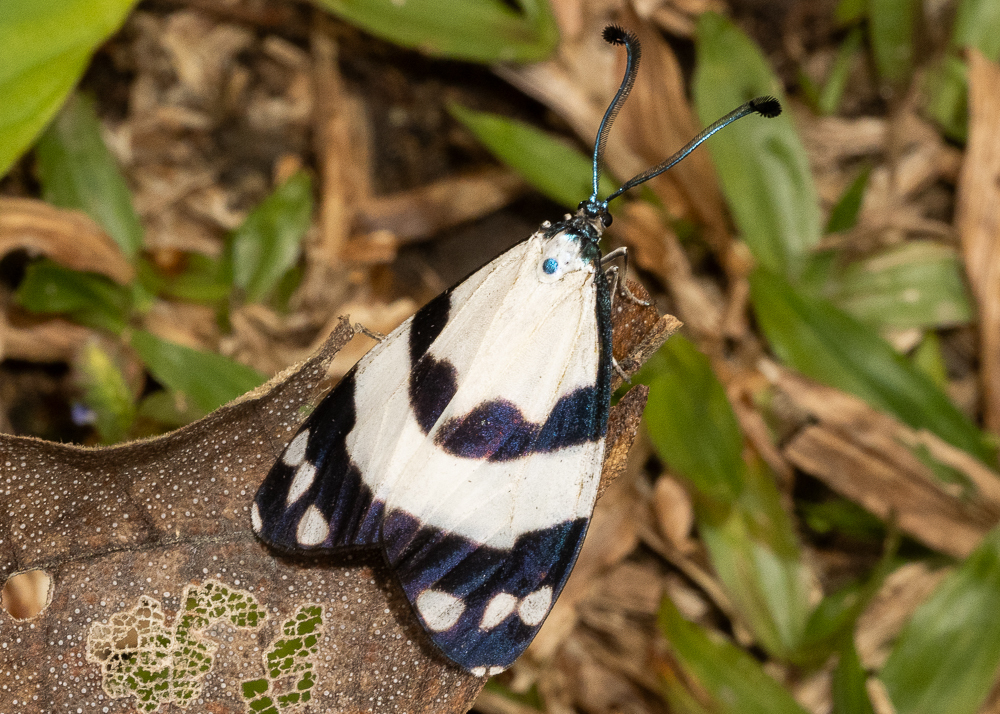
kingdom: Animalia
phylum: Arthropoda
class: Insecta
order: Lepidoptera
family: Zygaenidae
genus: Corma
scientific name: Corma zelica
